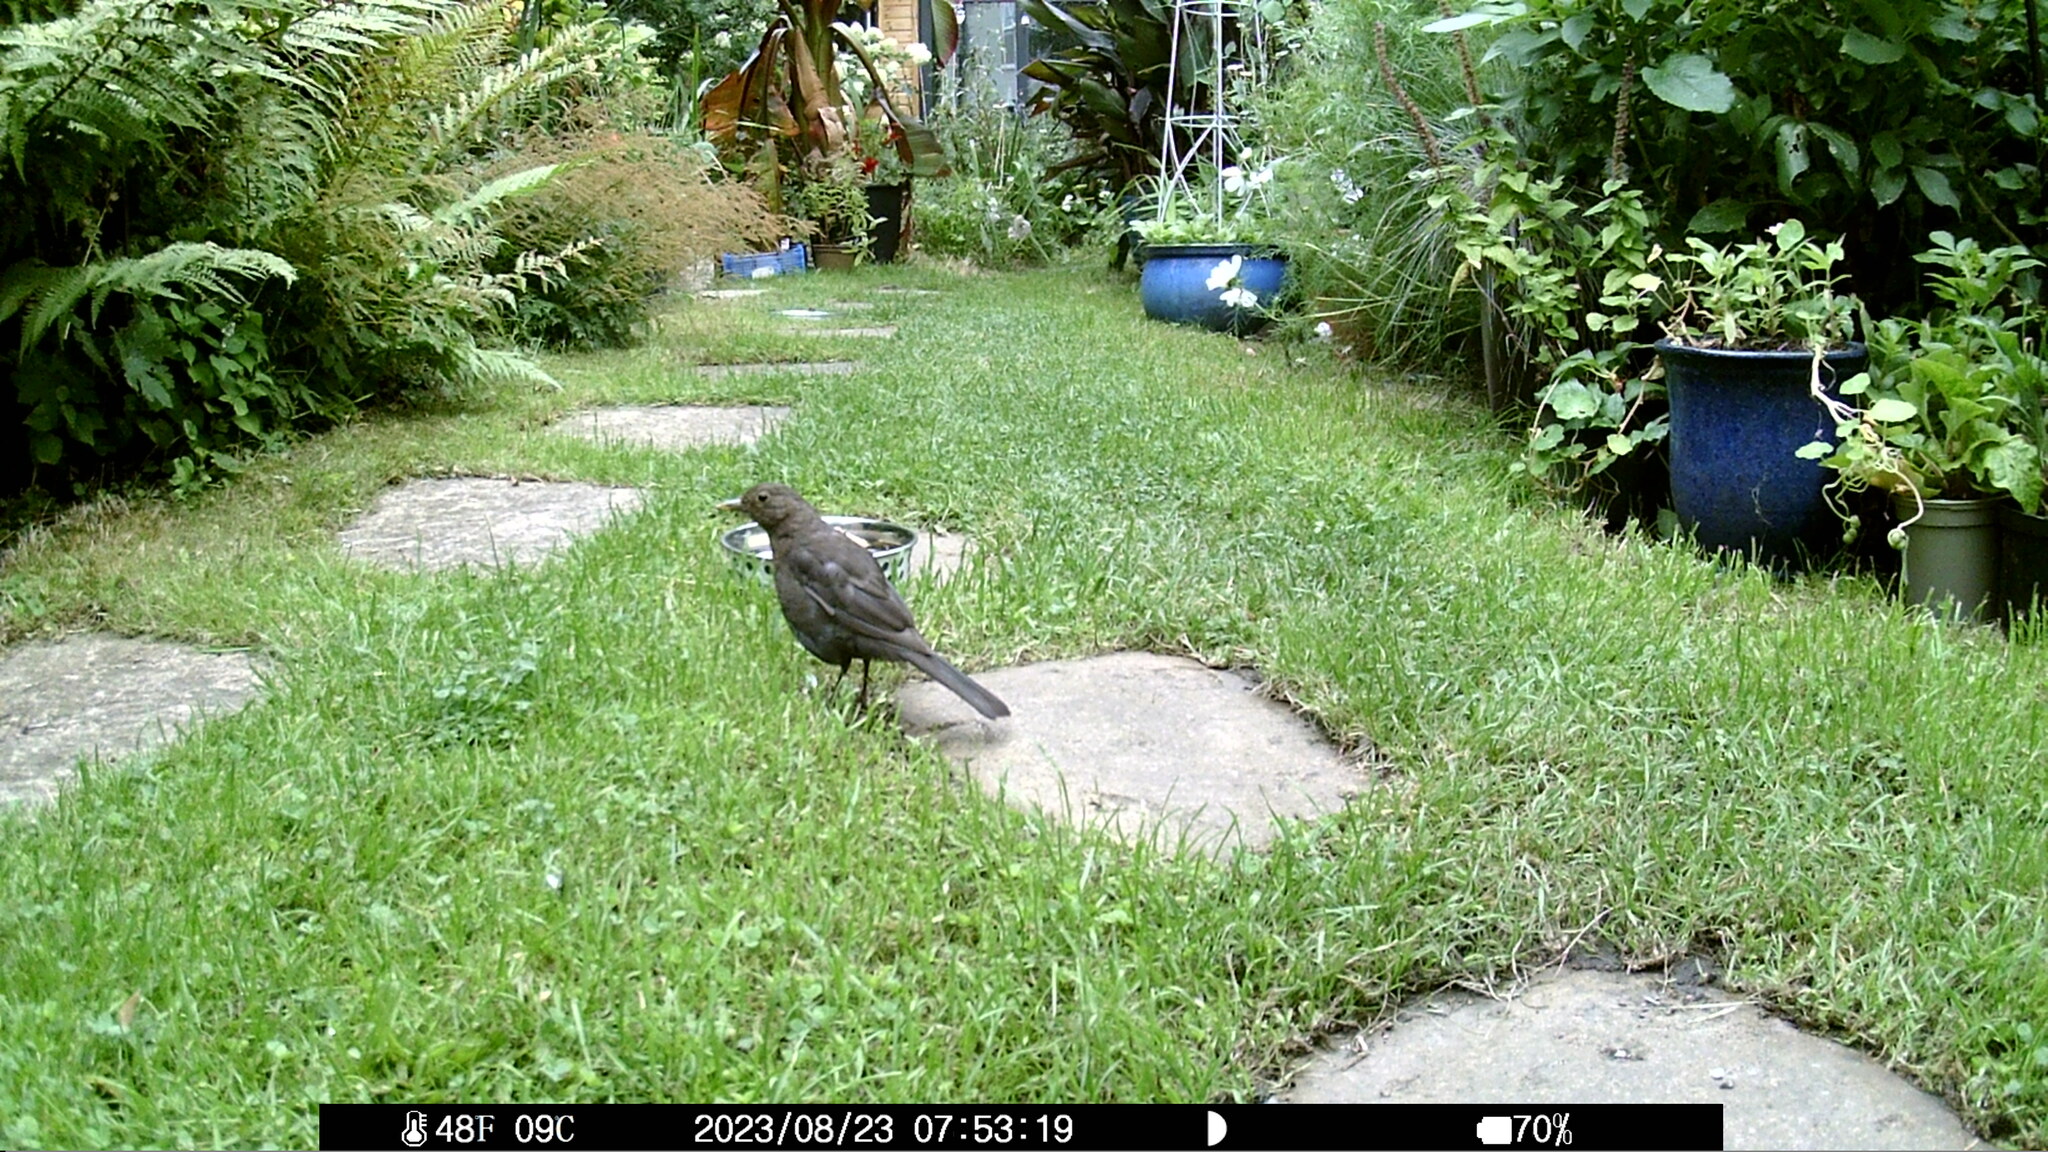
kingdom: Animalia
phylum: Chordata
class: Aves
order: Passeriformes
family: Turdidae
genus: Turdus
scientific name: Turdus merula
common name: Common blackbird
